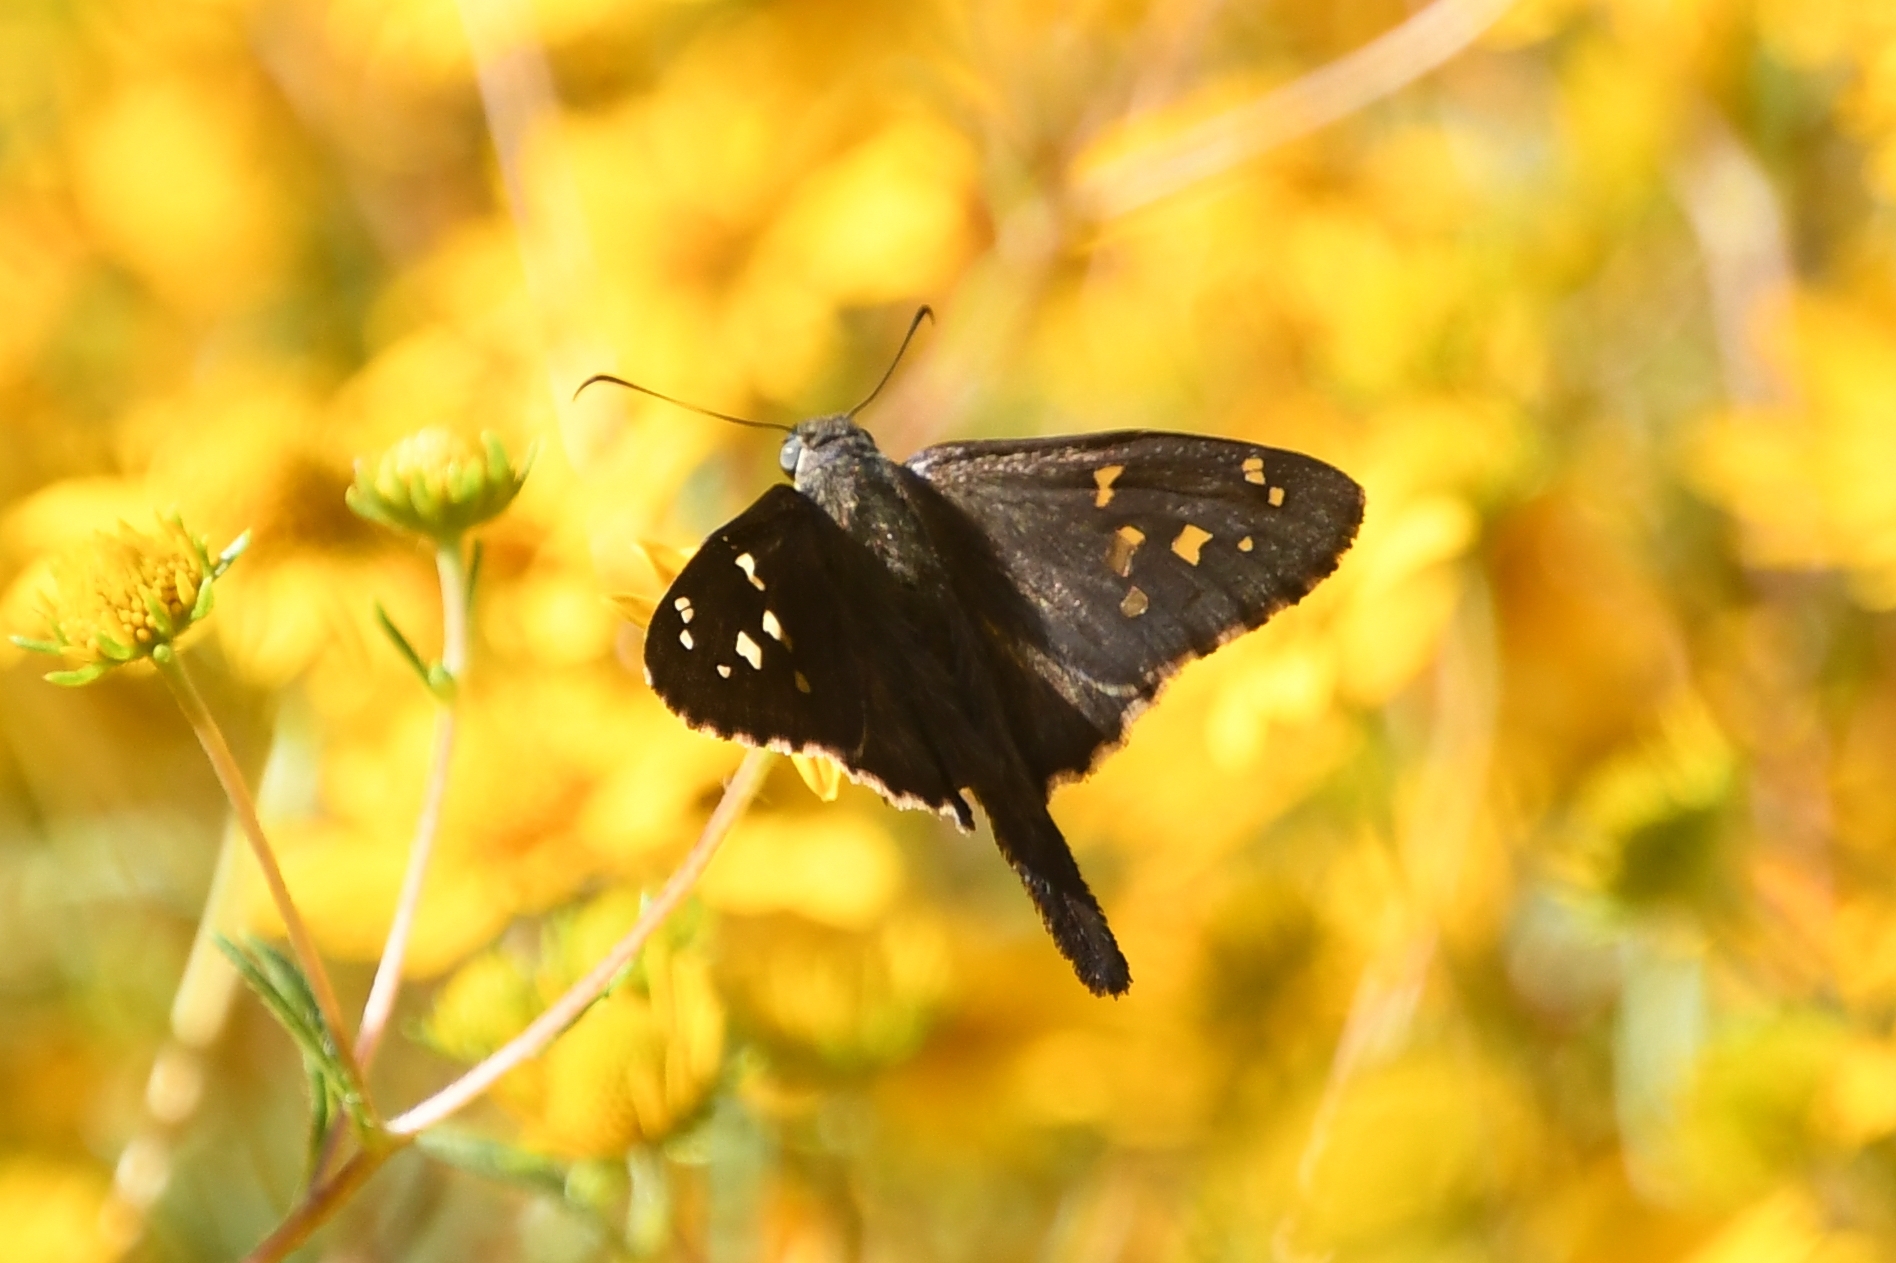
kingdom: Animalia
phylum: Arthropoda
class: Insecta
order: Lepidoptera
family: Hesperiidae
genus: Thorybes
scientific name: Thorybes
